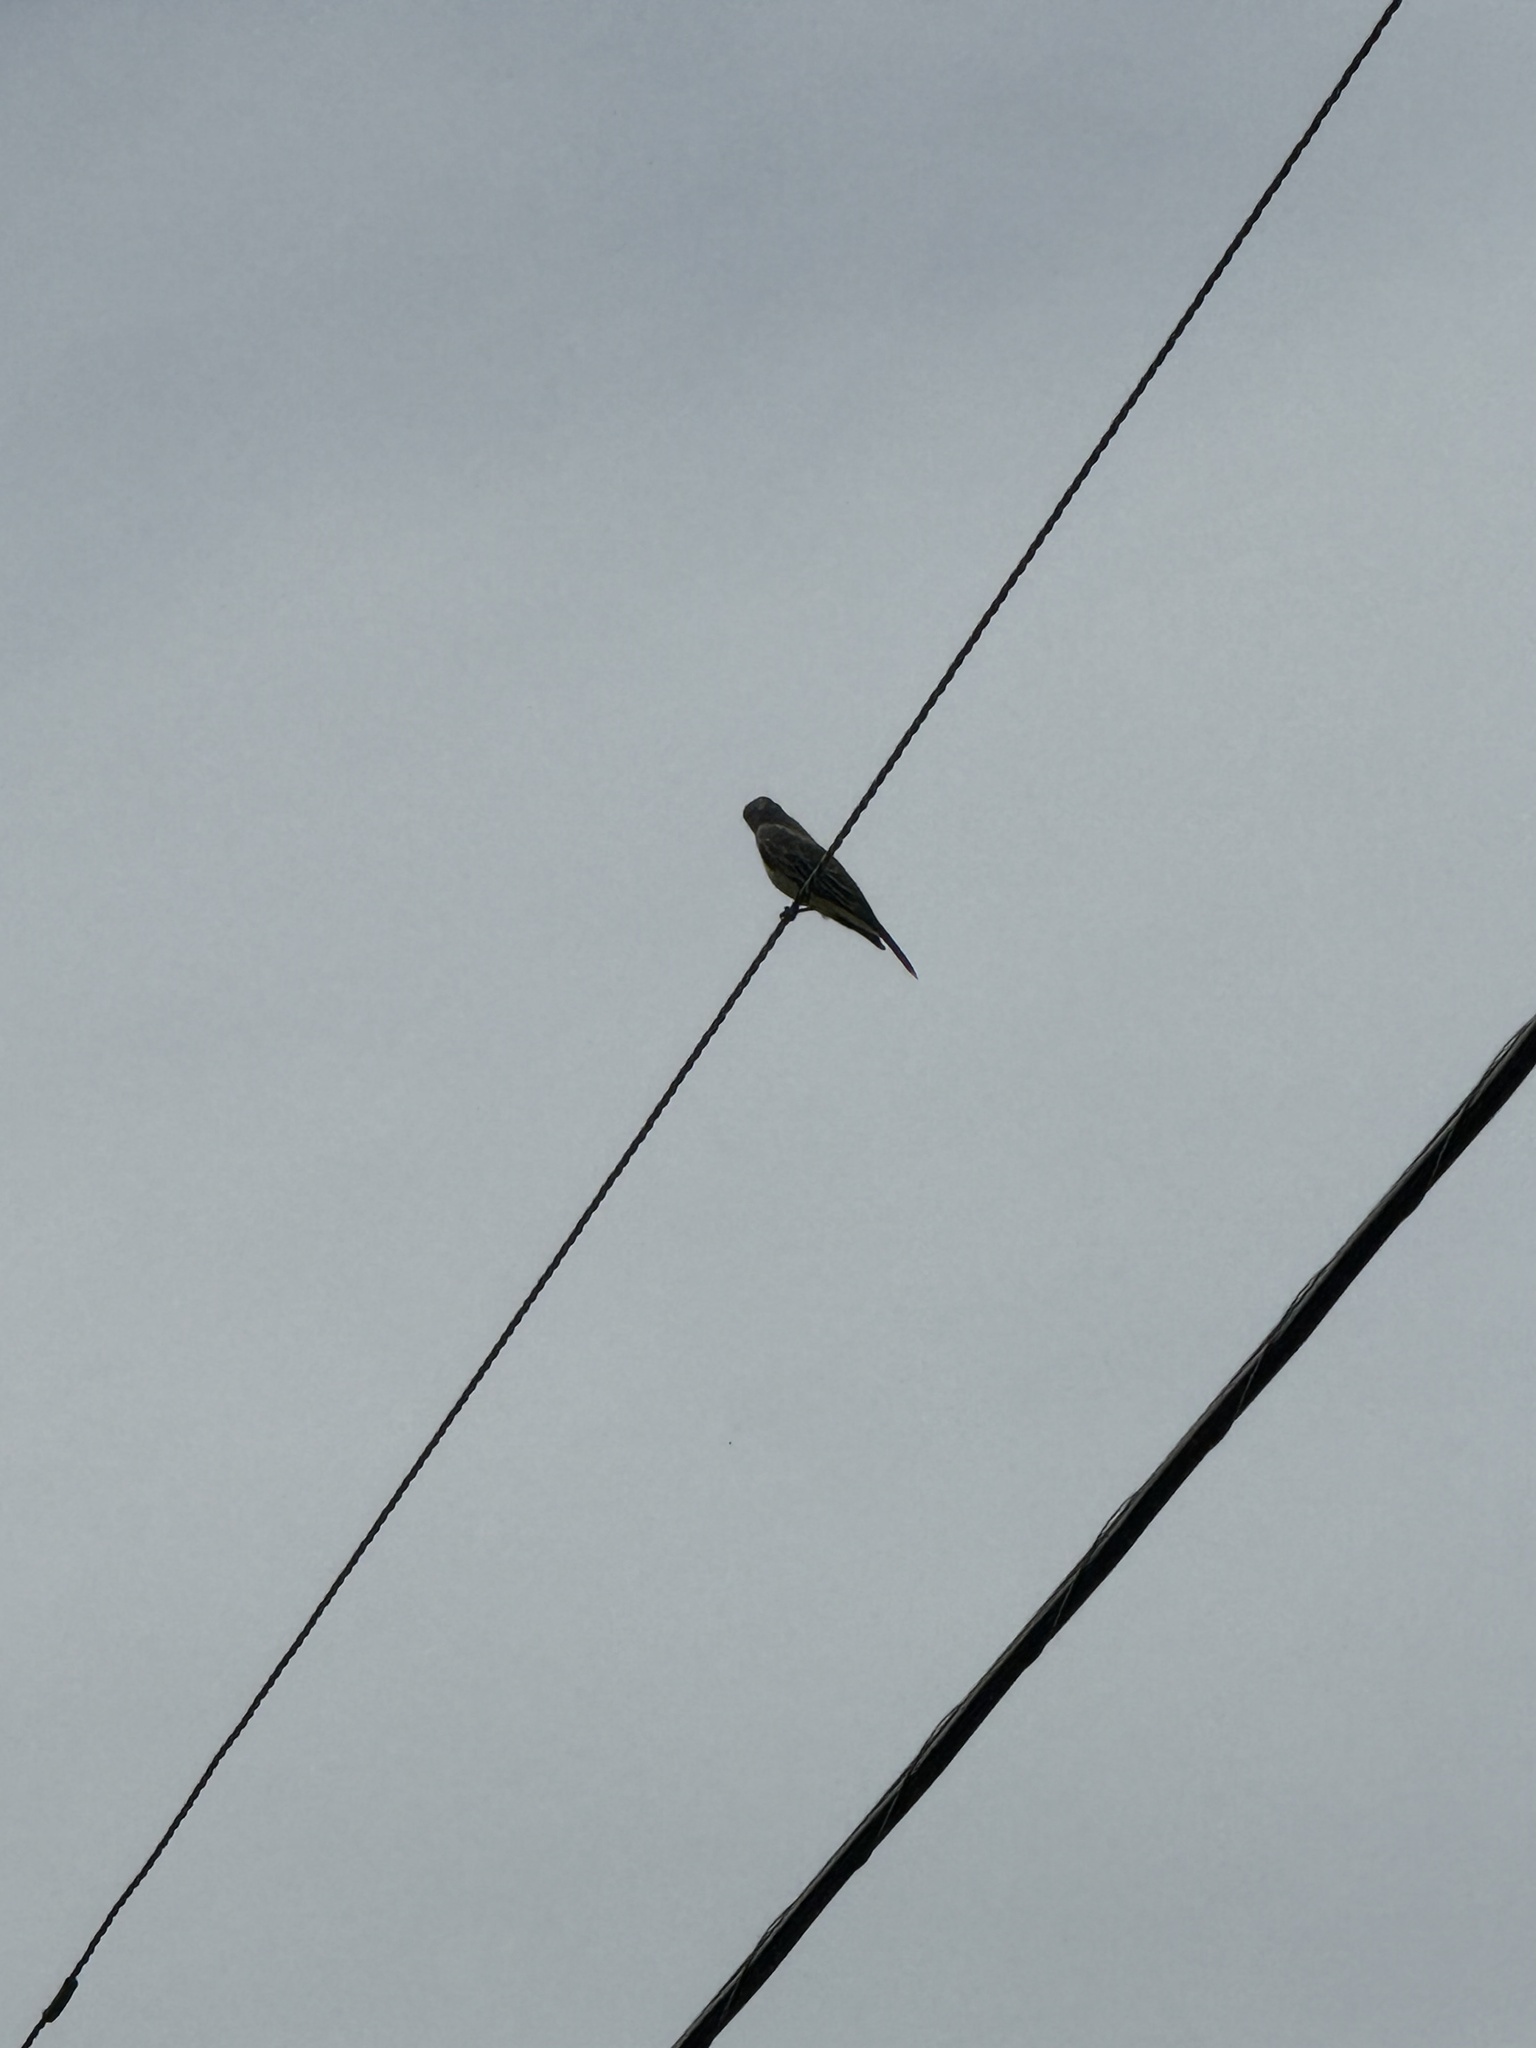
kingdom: Animalia
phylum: Chordata
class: Aves
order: Passeriformes
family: Tyrannidae
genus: Tyrannus
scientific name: Tyrannus vociferans
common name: Cassin's kingbird
